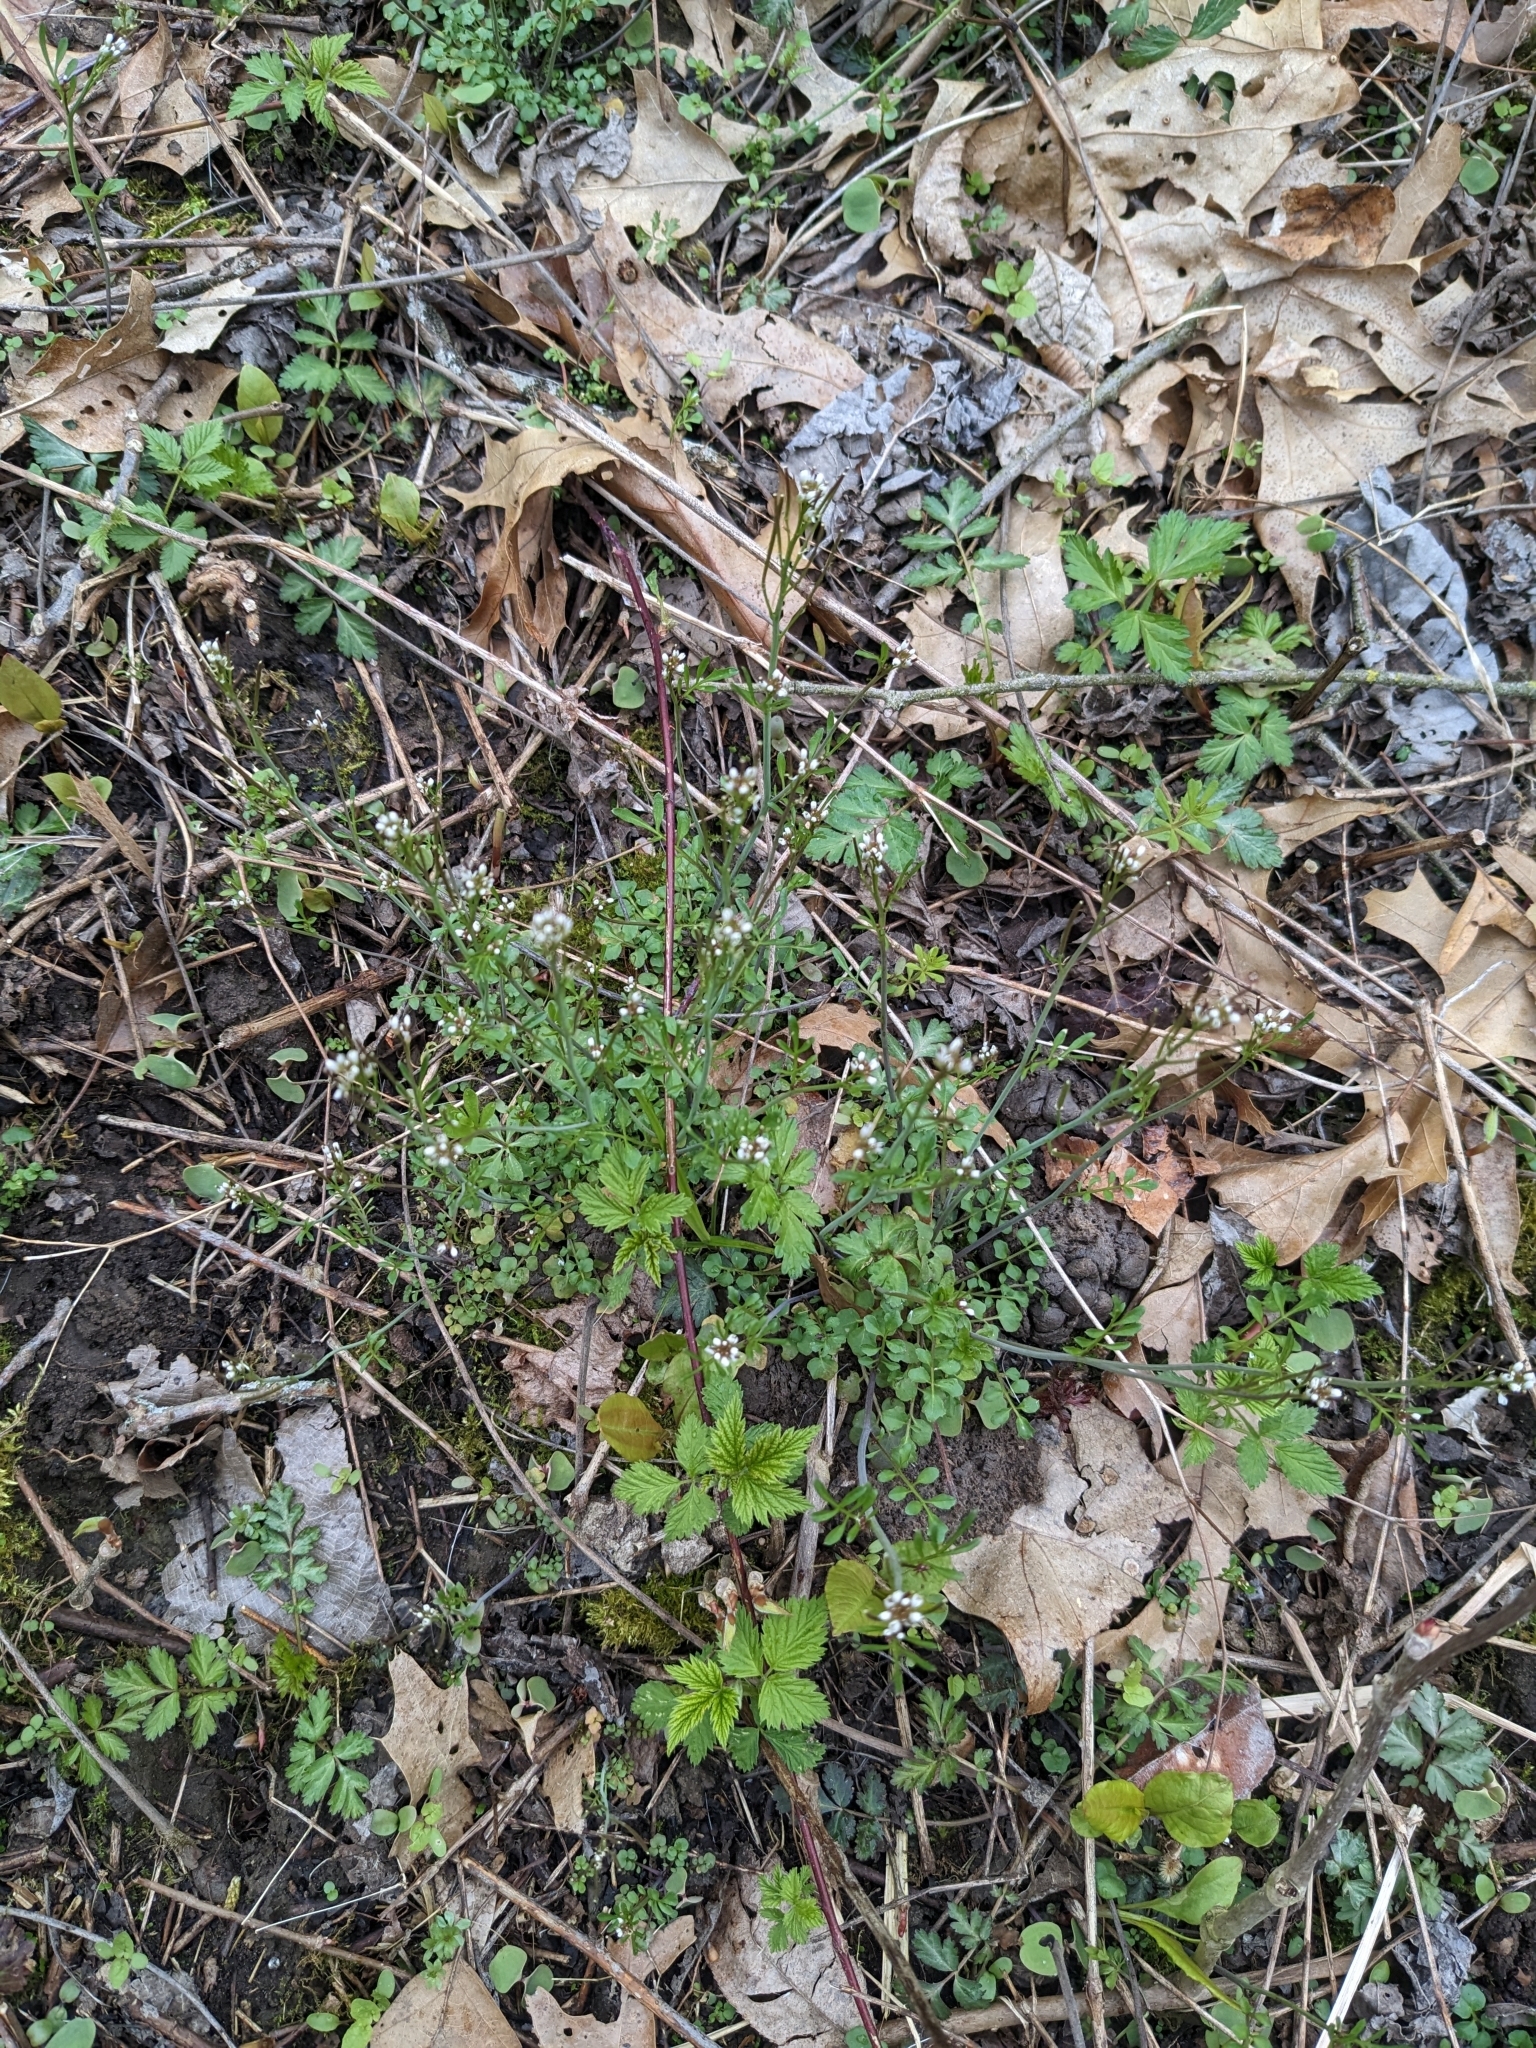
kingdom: Plantae
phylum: Tracheophyta
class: Magnoliopsida
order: Brassicales
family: Brassicaceae
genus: Cardamine
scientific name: Cardamine hirsuta
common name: Hairy bittercress
